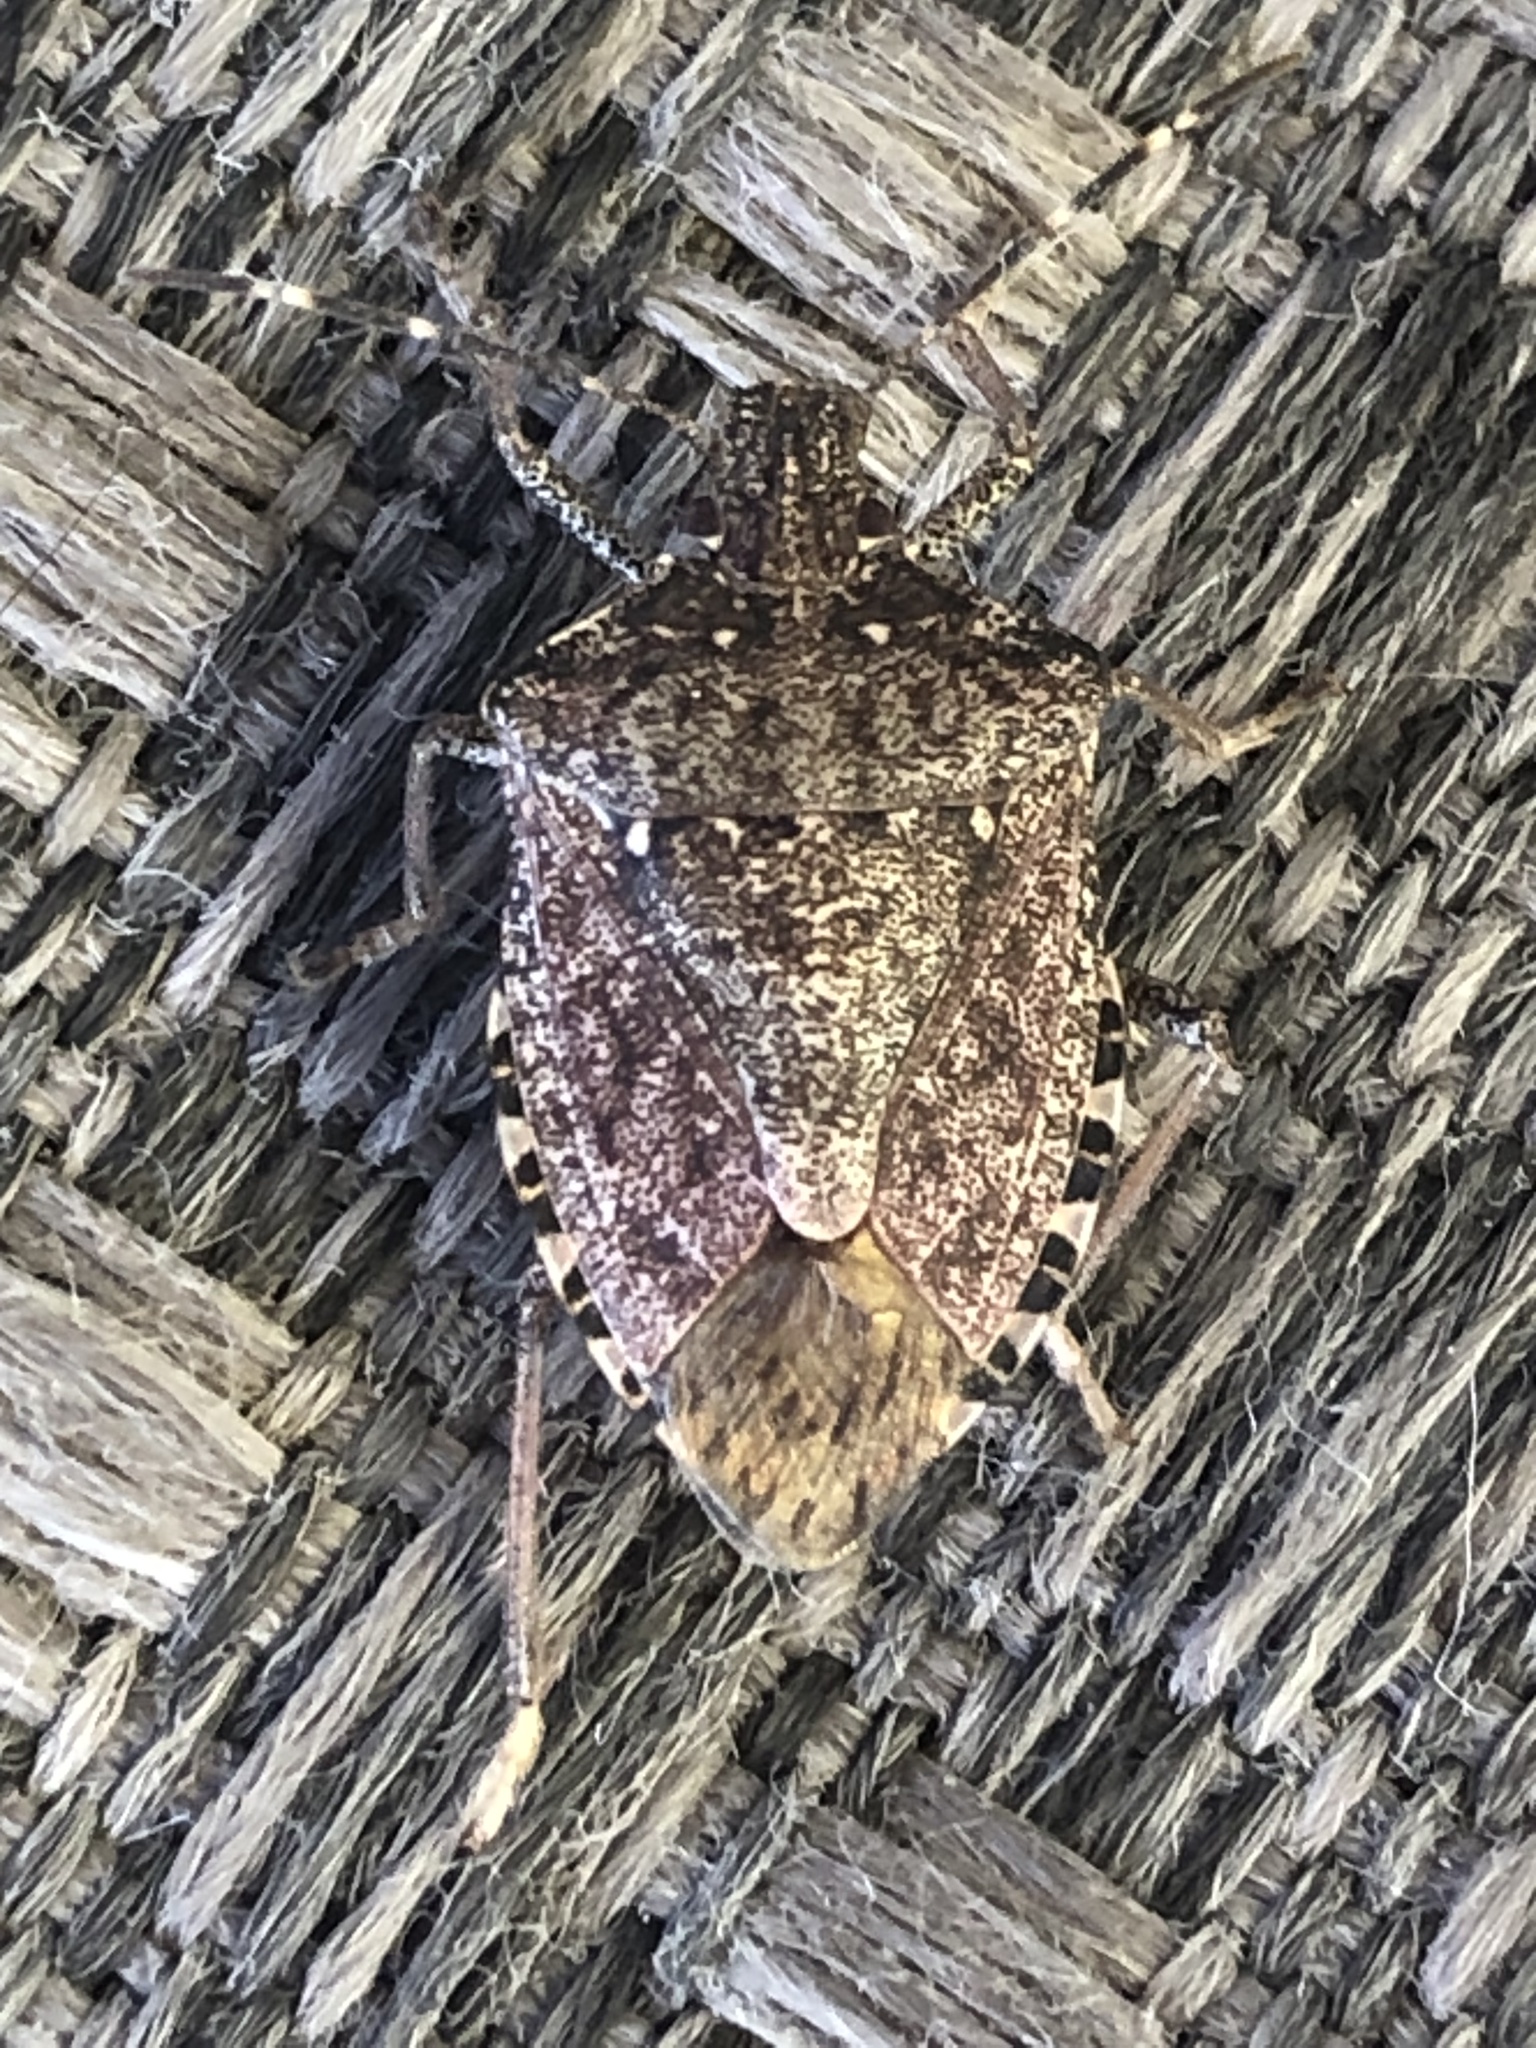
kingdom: Animalia
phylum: Arthropoda
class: Insecta
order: Hemiptera
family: Pentatomidae
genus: Halyomorpha
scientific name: Halyomorpha halys
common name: Brown marmorated stink bug
